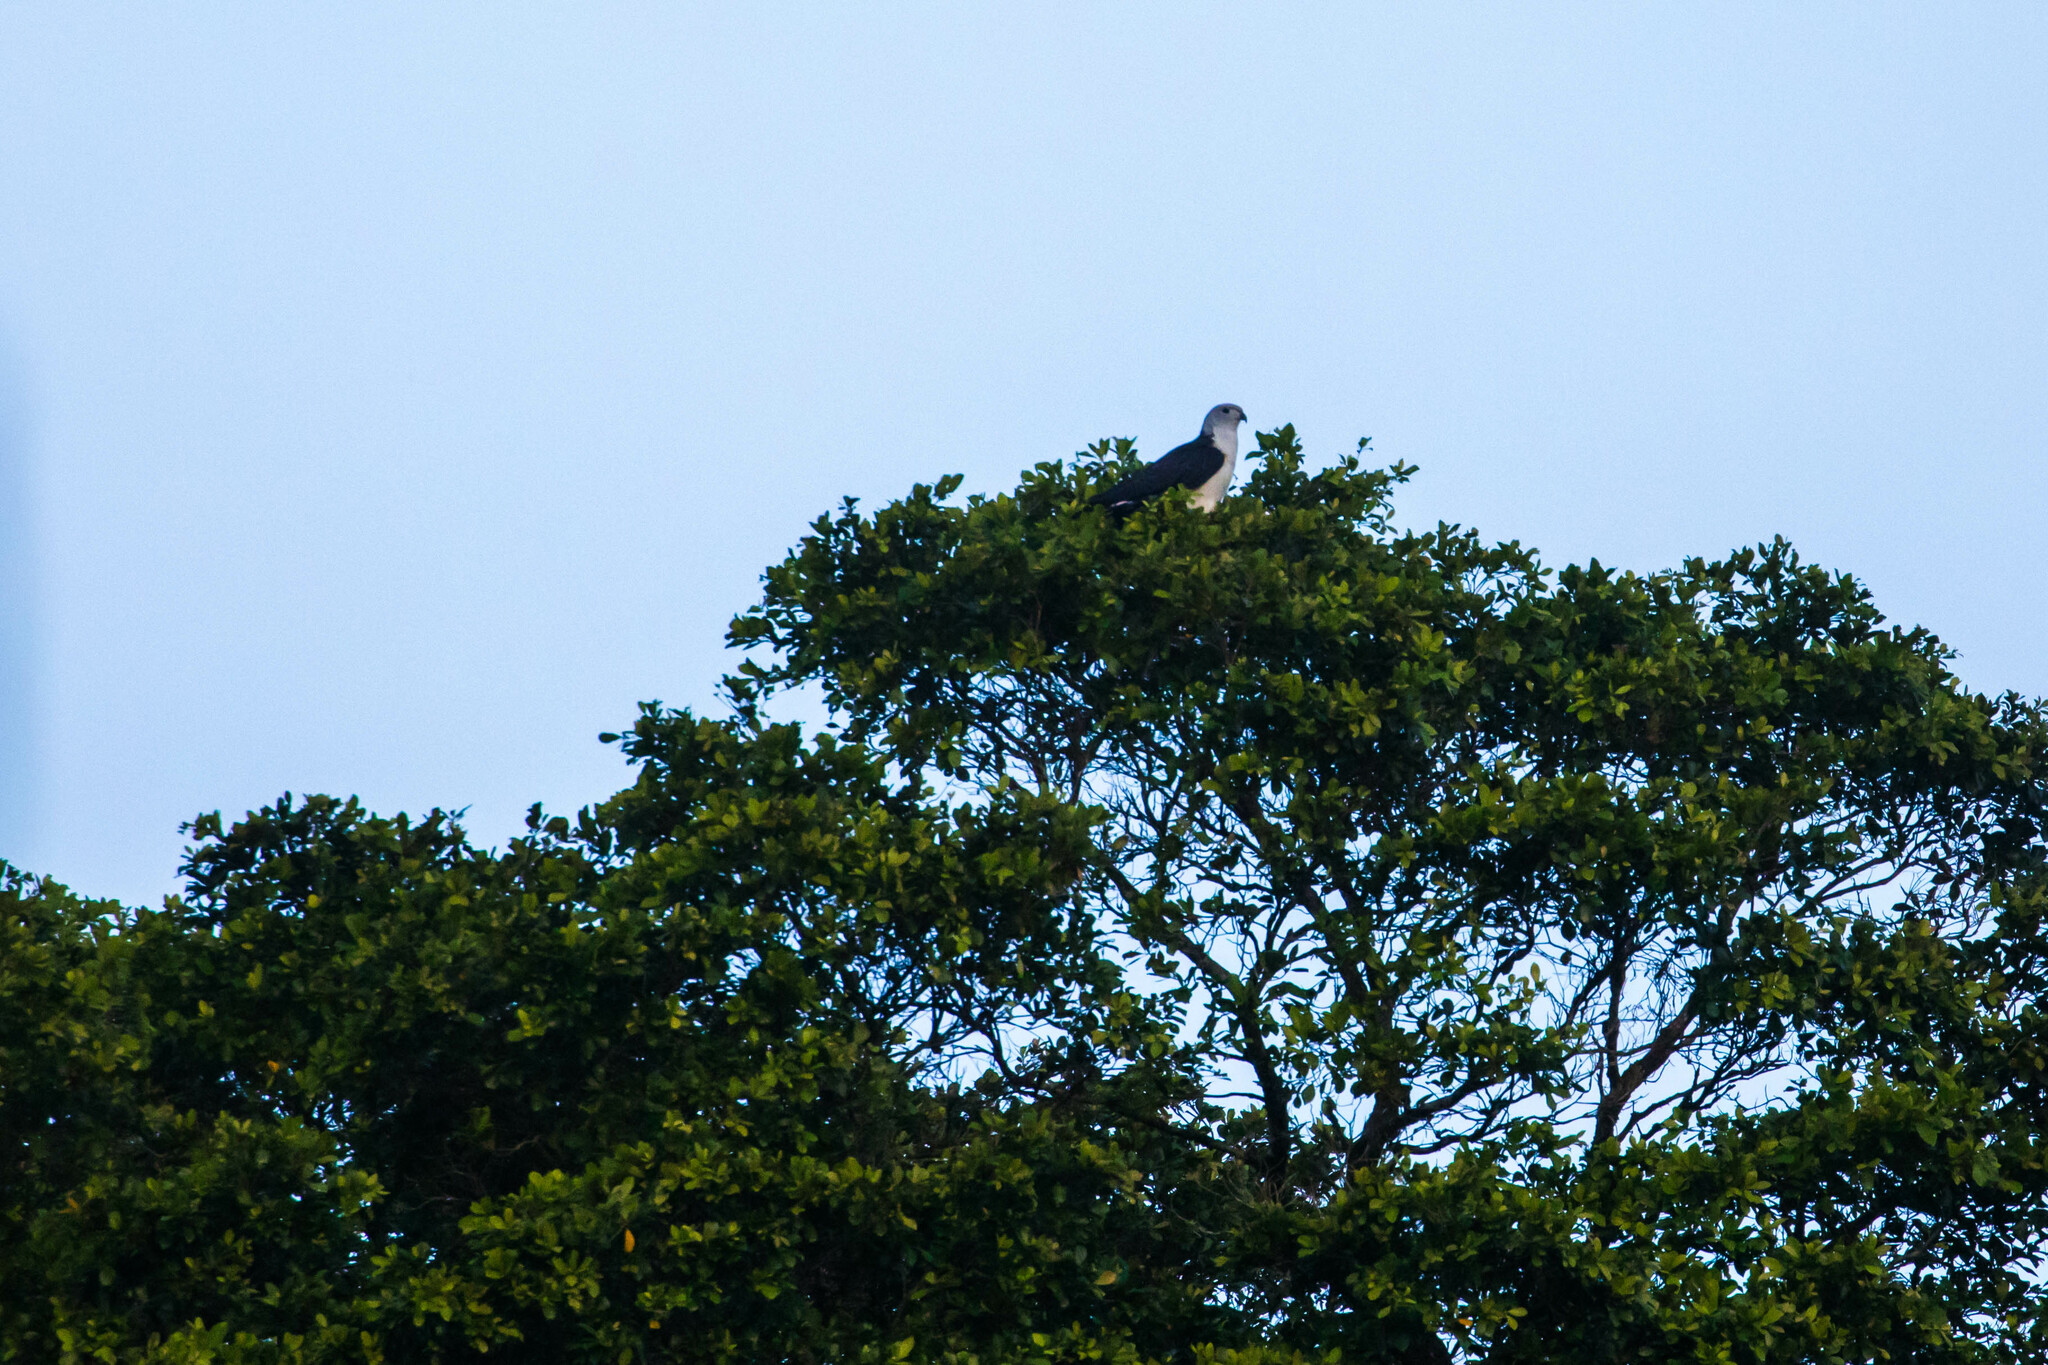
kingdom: Animalia
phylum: Chordata
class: Aves
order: Accipitriformes
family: Accipitridae
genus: Leptodon
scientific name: Leptodon cayanensis
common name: Gray-headed kite
